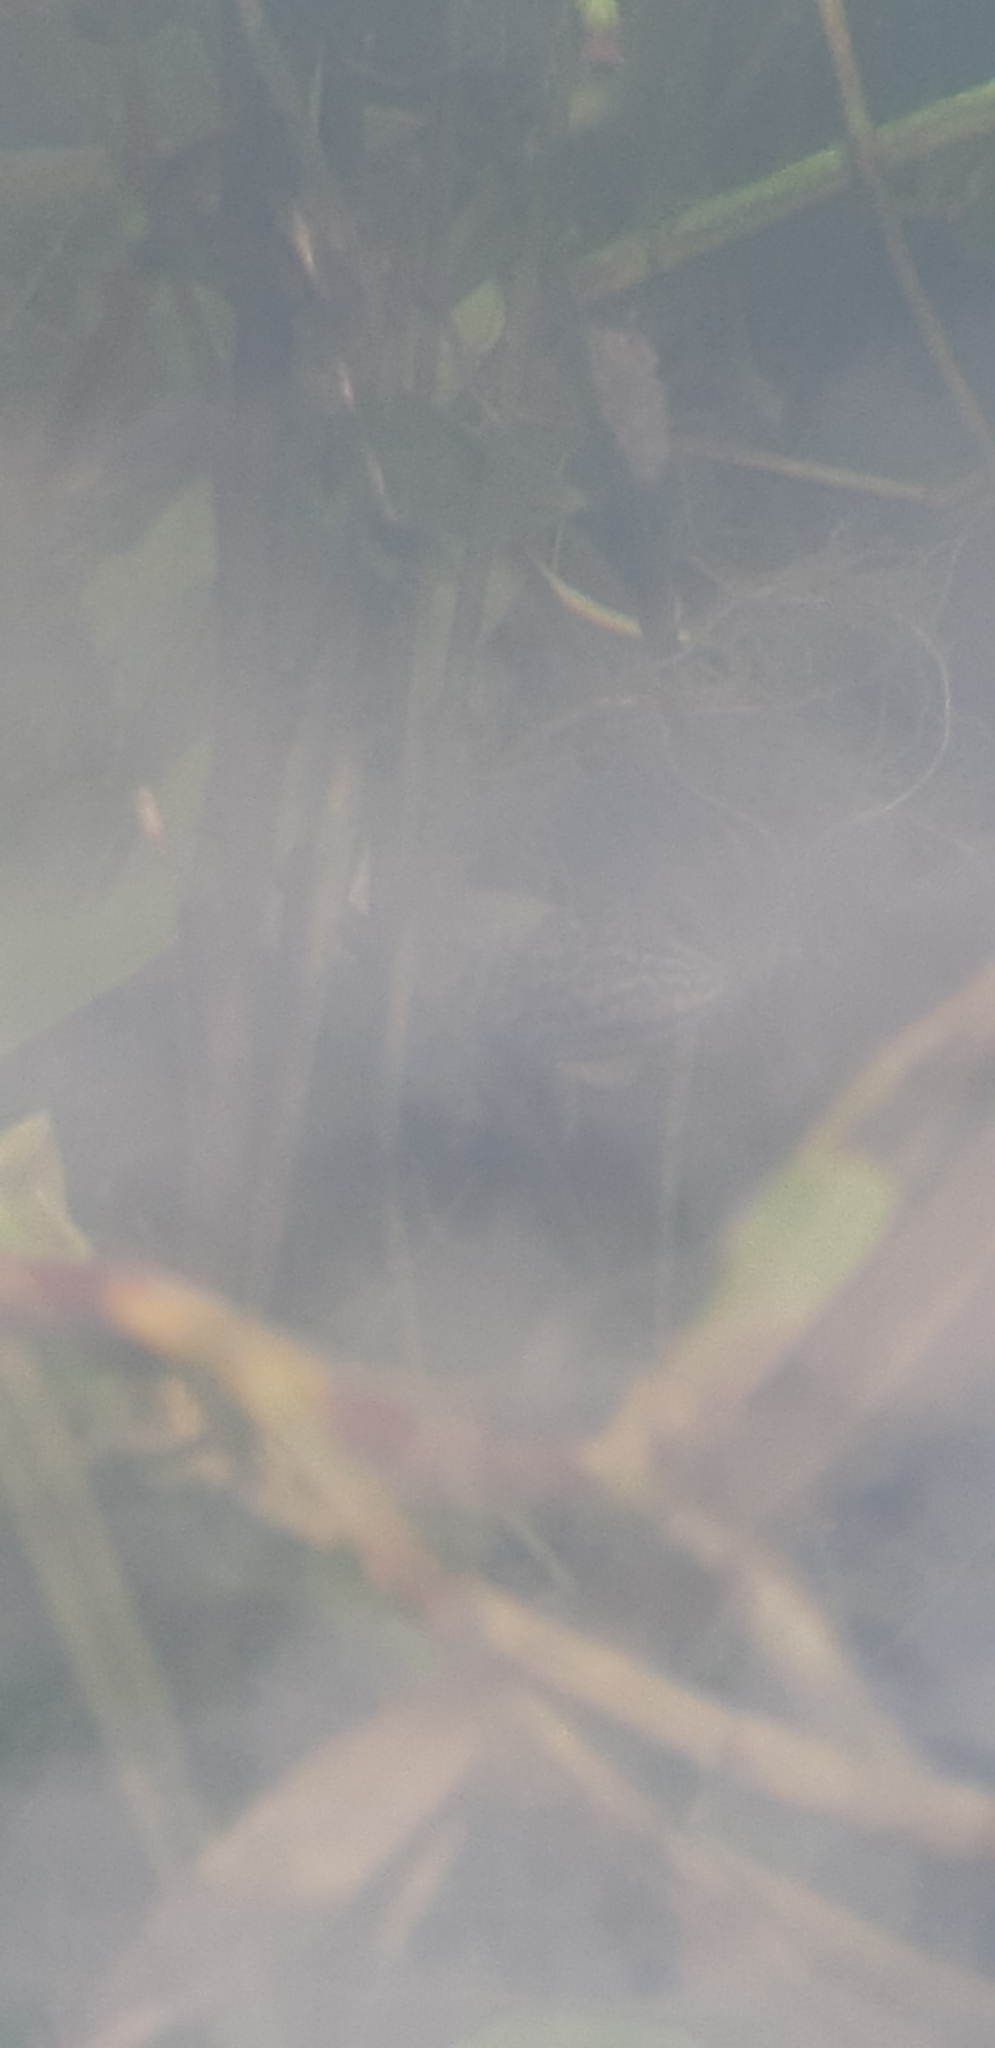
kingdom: Animalia
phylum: Chordata
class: Amphibia
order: Caudata
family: Salamandridae
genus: Lissotriton
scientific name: Lissotriton vulgaris
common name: Smooth newt
